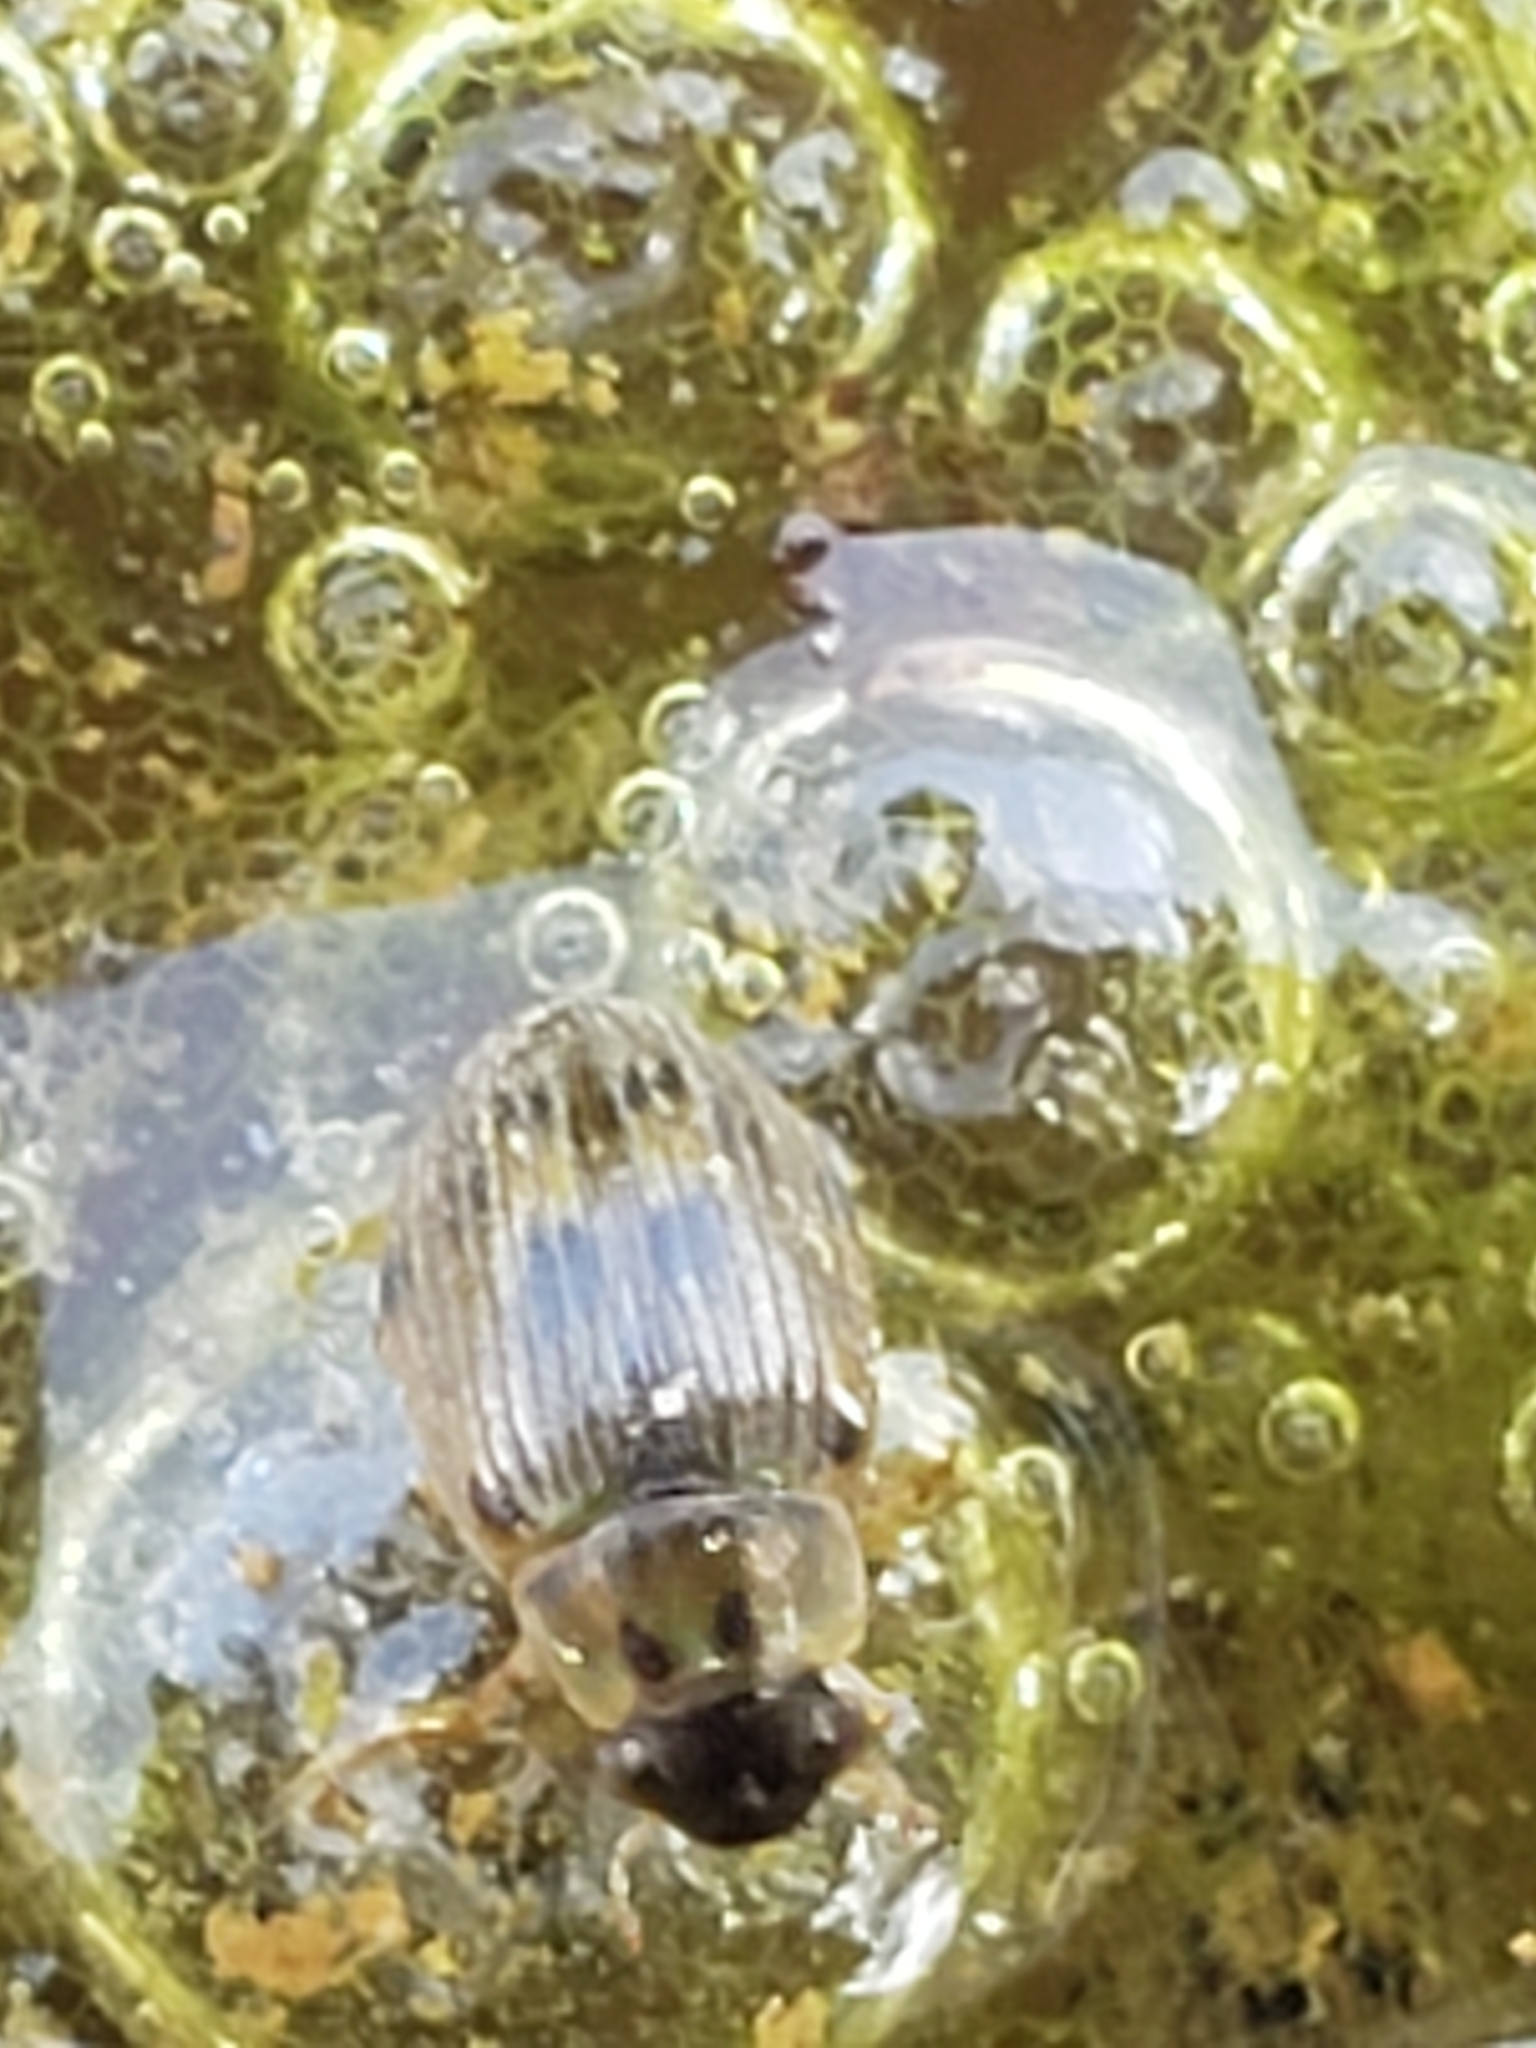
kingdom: Animalia
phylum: Arthropoda
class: Insecta
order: Coleoptera
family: Hydrophilidae
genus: Berosus
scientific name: Berosus
